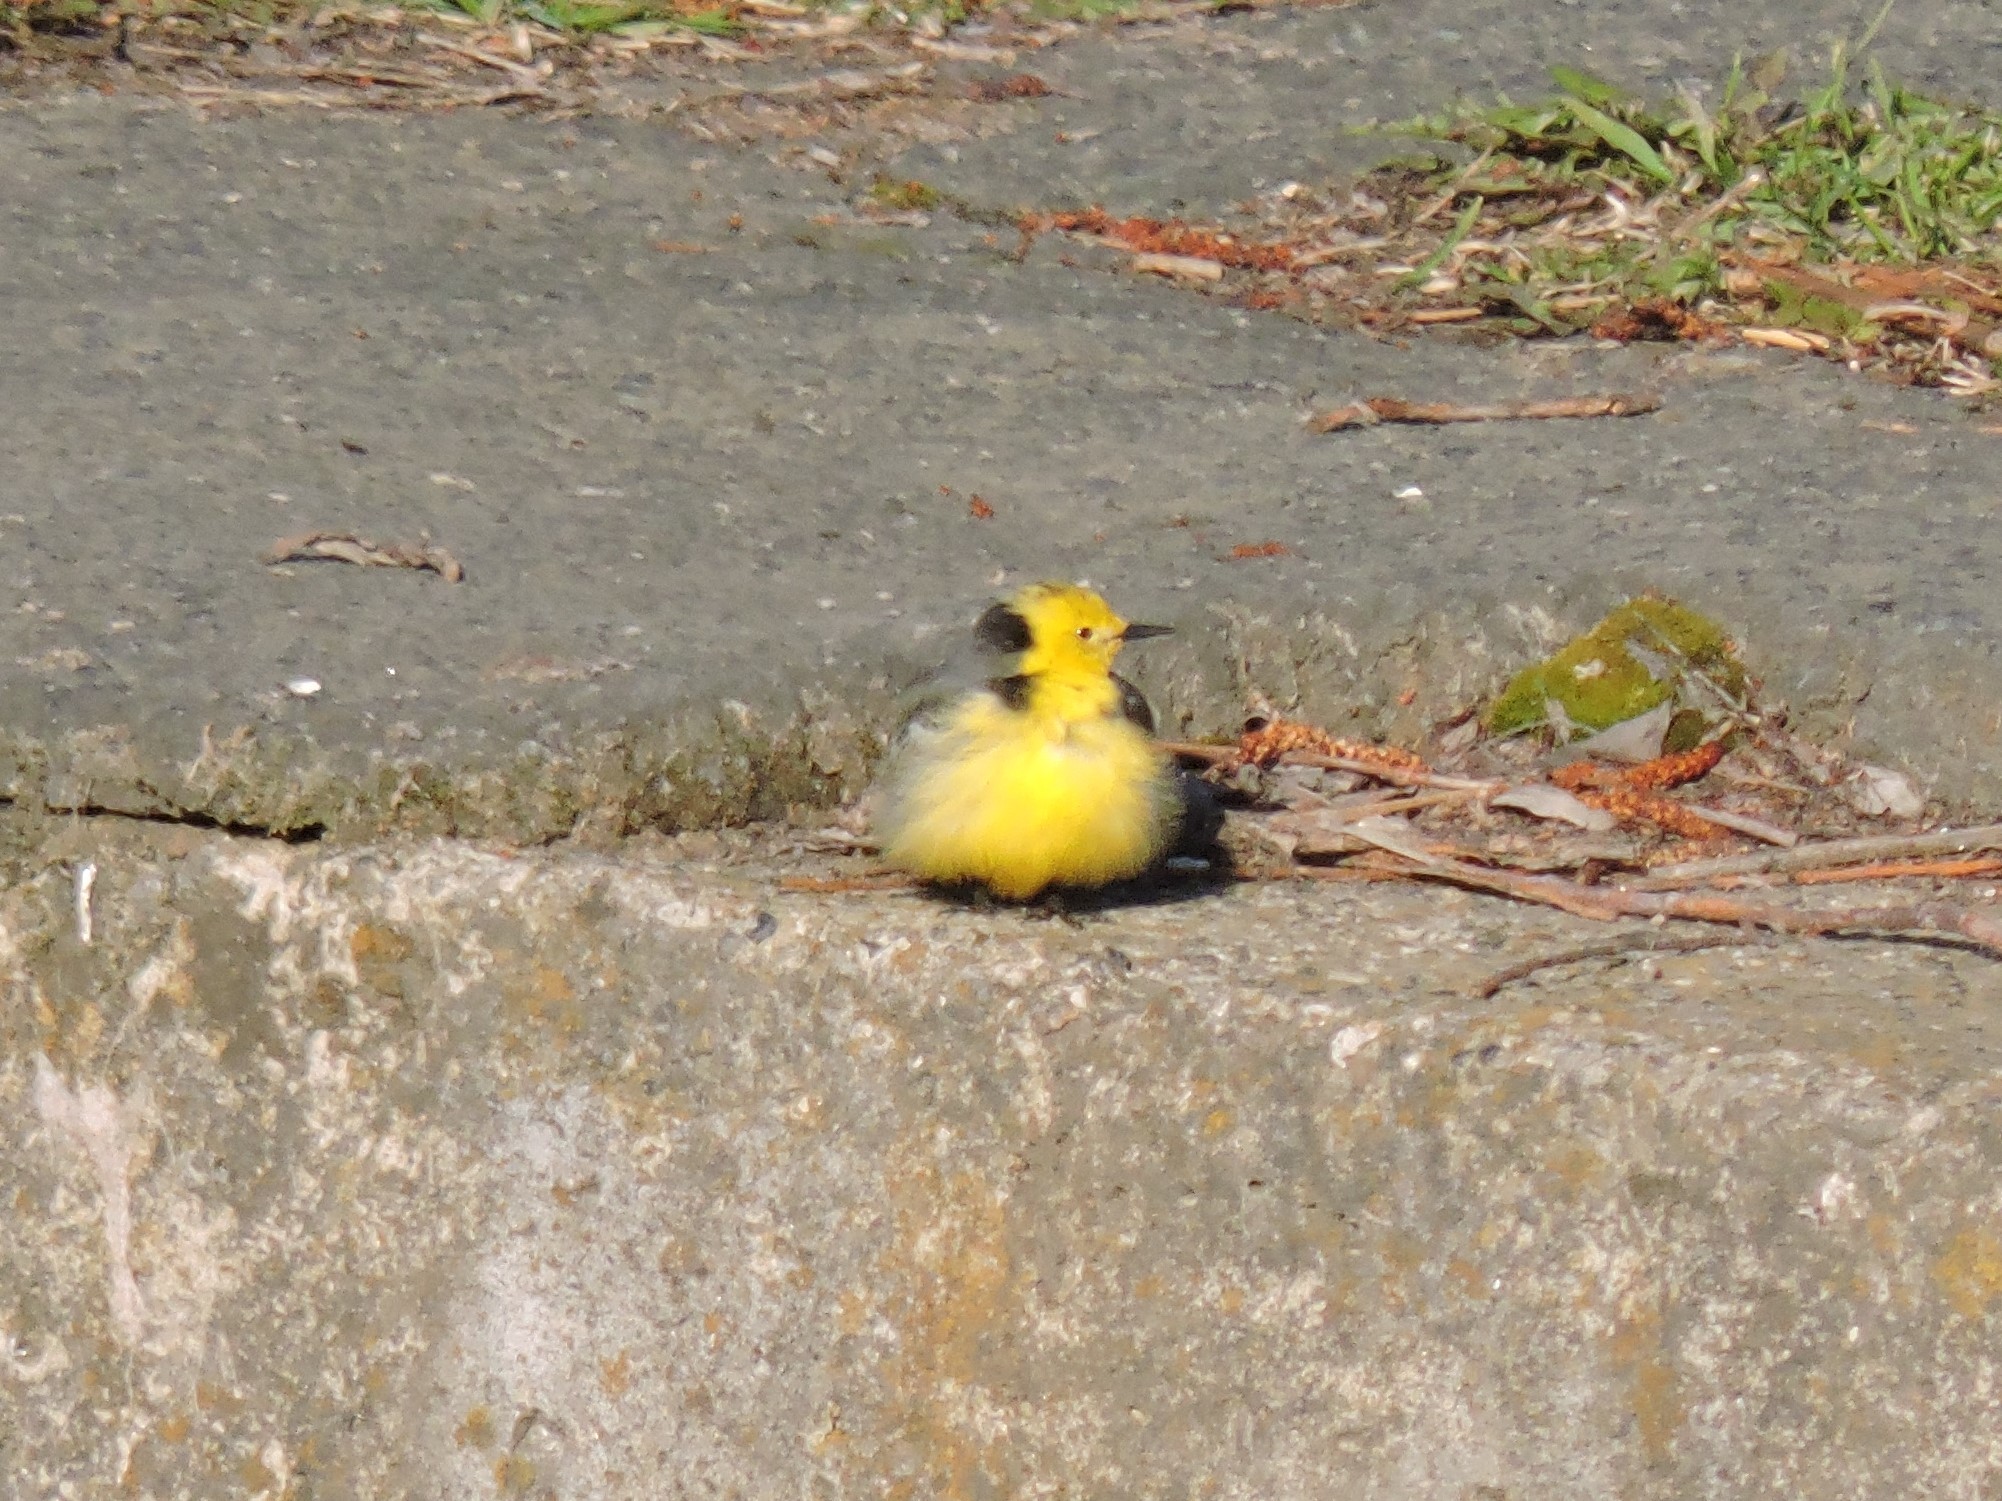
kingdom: Animalia
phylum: Chordata
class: Aves
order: Passeriformes
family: Motacillidae
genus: Motacilla
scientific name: Motacilla citreola
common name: Citrine wagtail
